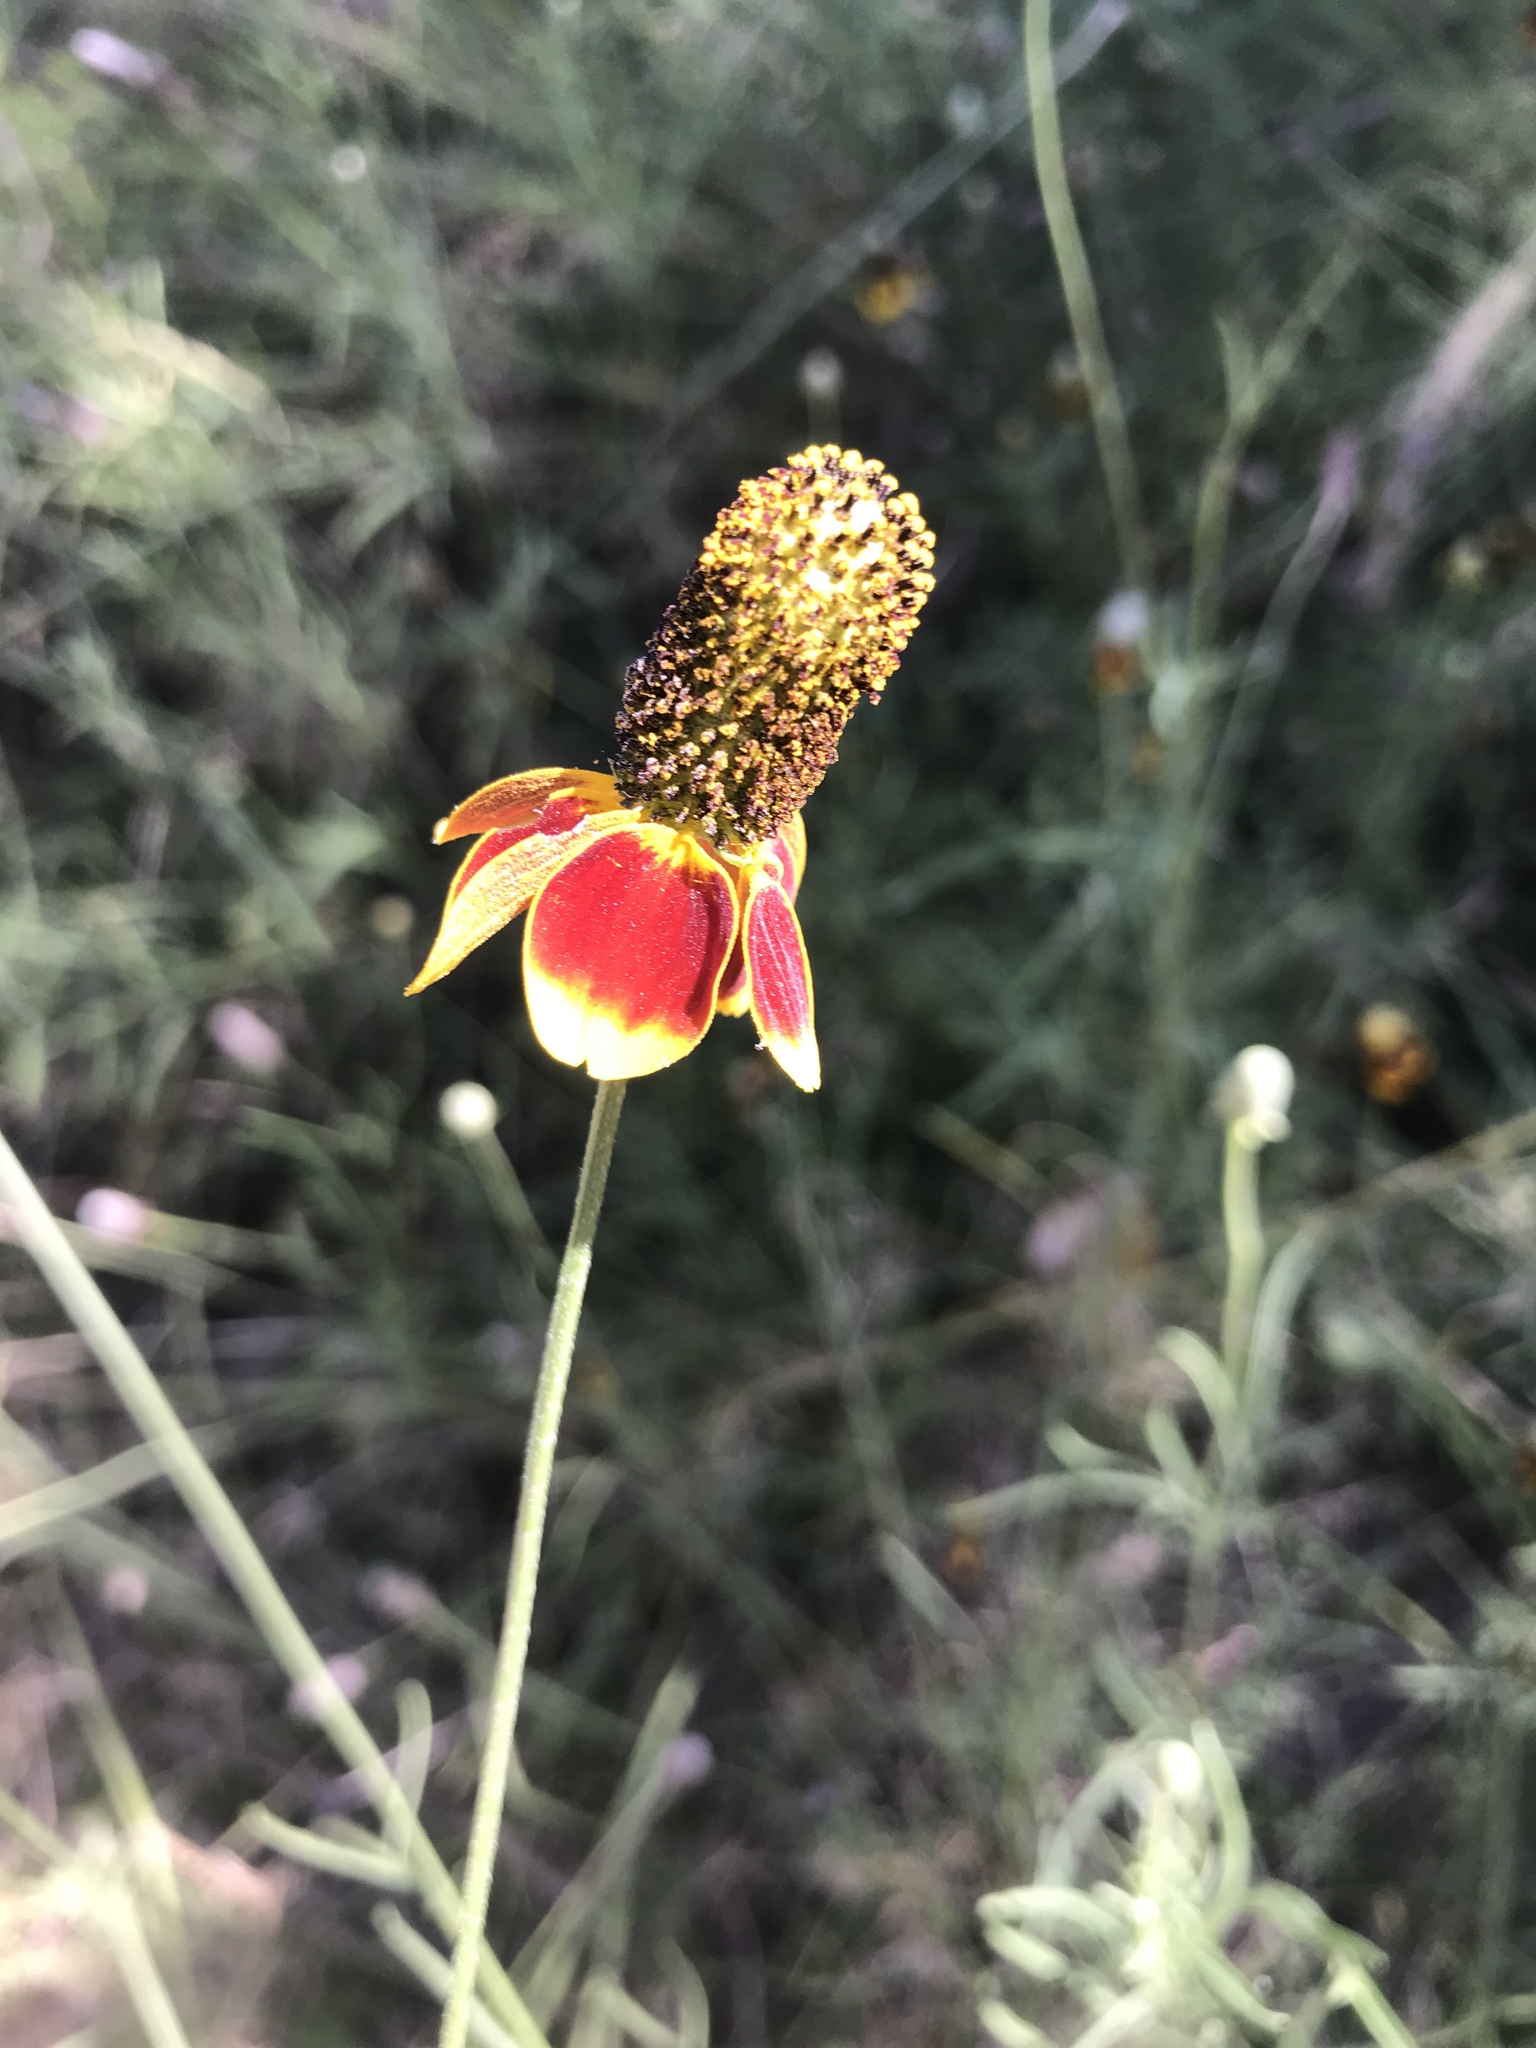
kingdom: Plantae
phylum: Tracheophyta
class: Magnoliopsida
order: Asterales
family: Asteraceae
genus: Ratibida
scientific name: Ratibida columnifera
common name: Prairie coneflower
